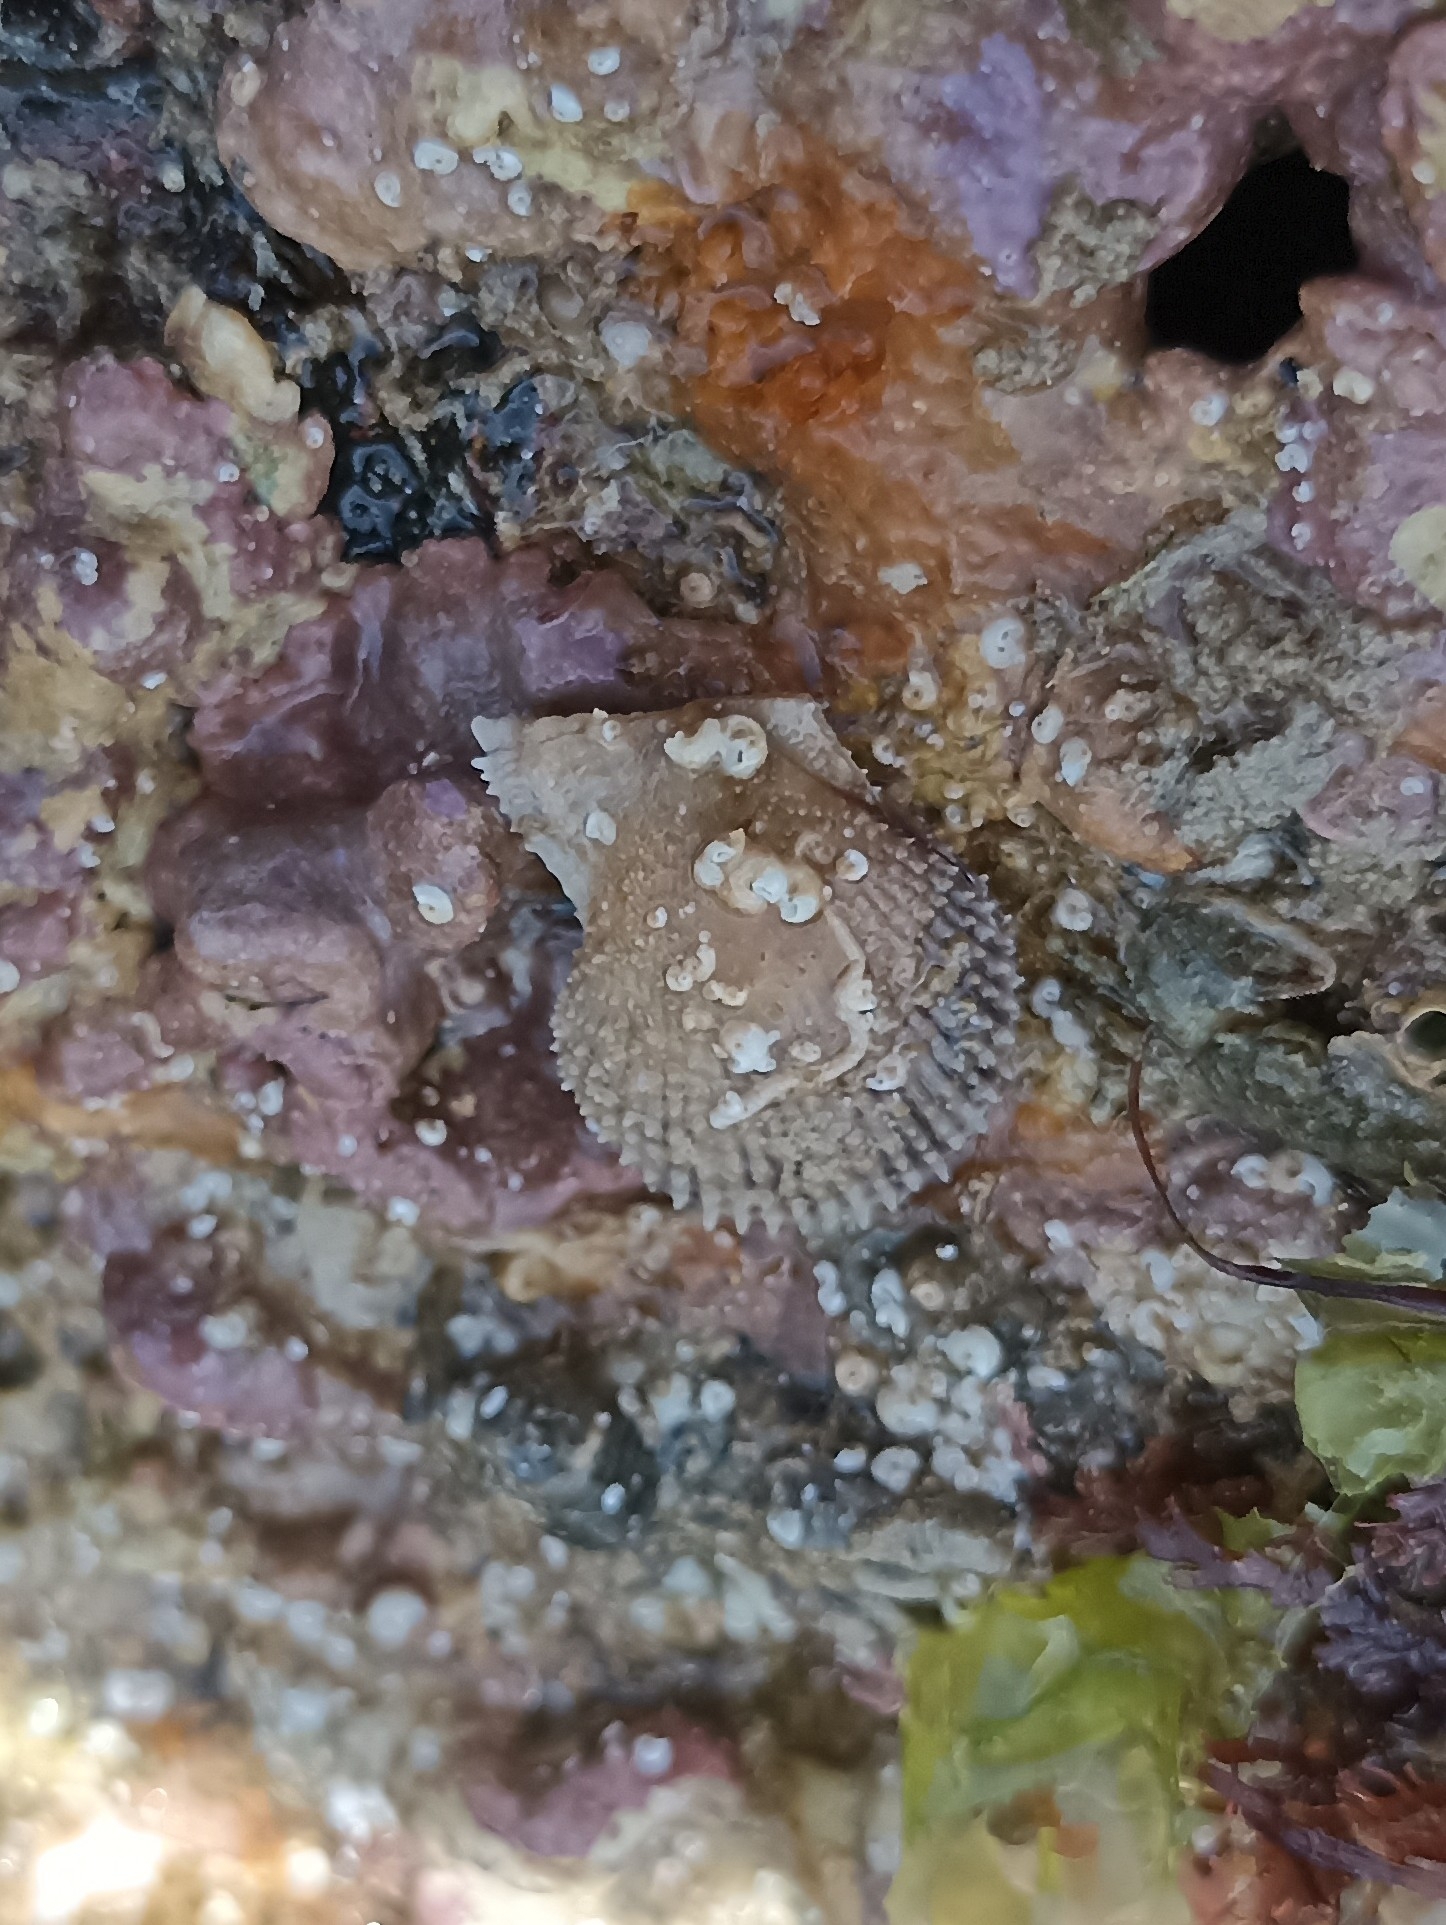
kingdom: Animalia
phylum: Mollusca
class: Bivalvia
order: Pectinida
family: Pectinidae
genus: Mimachlamys
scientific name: Mimachlamys varia
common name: Variegated scallop
